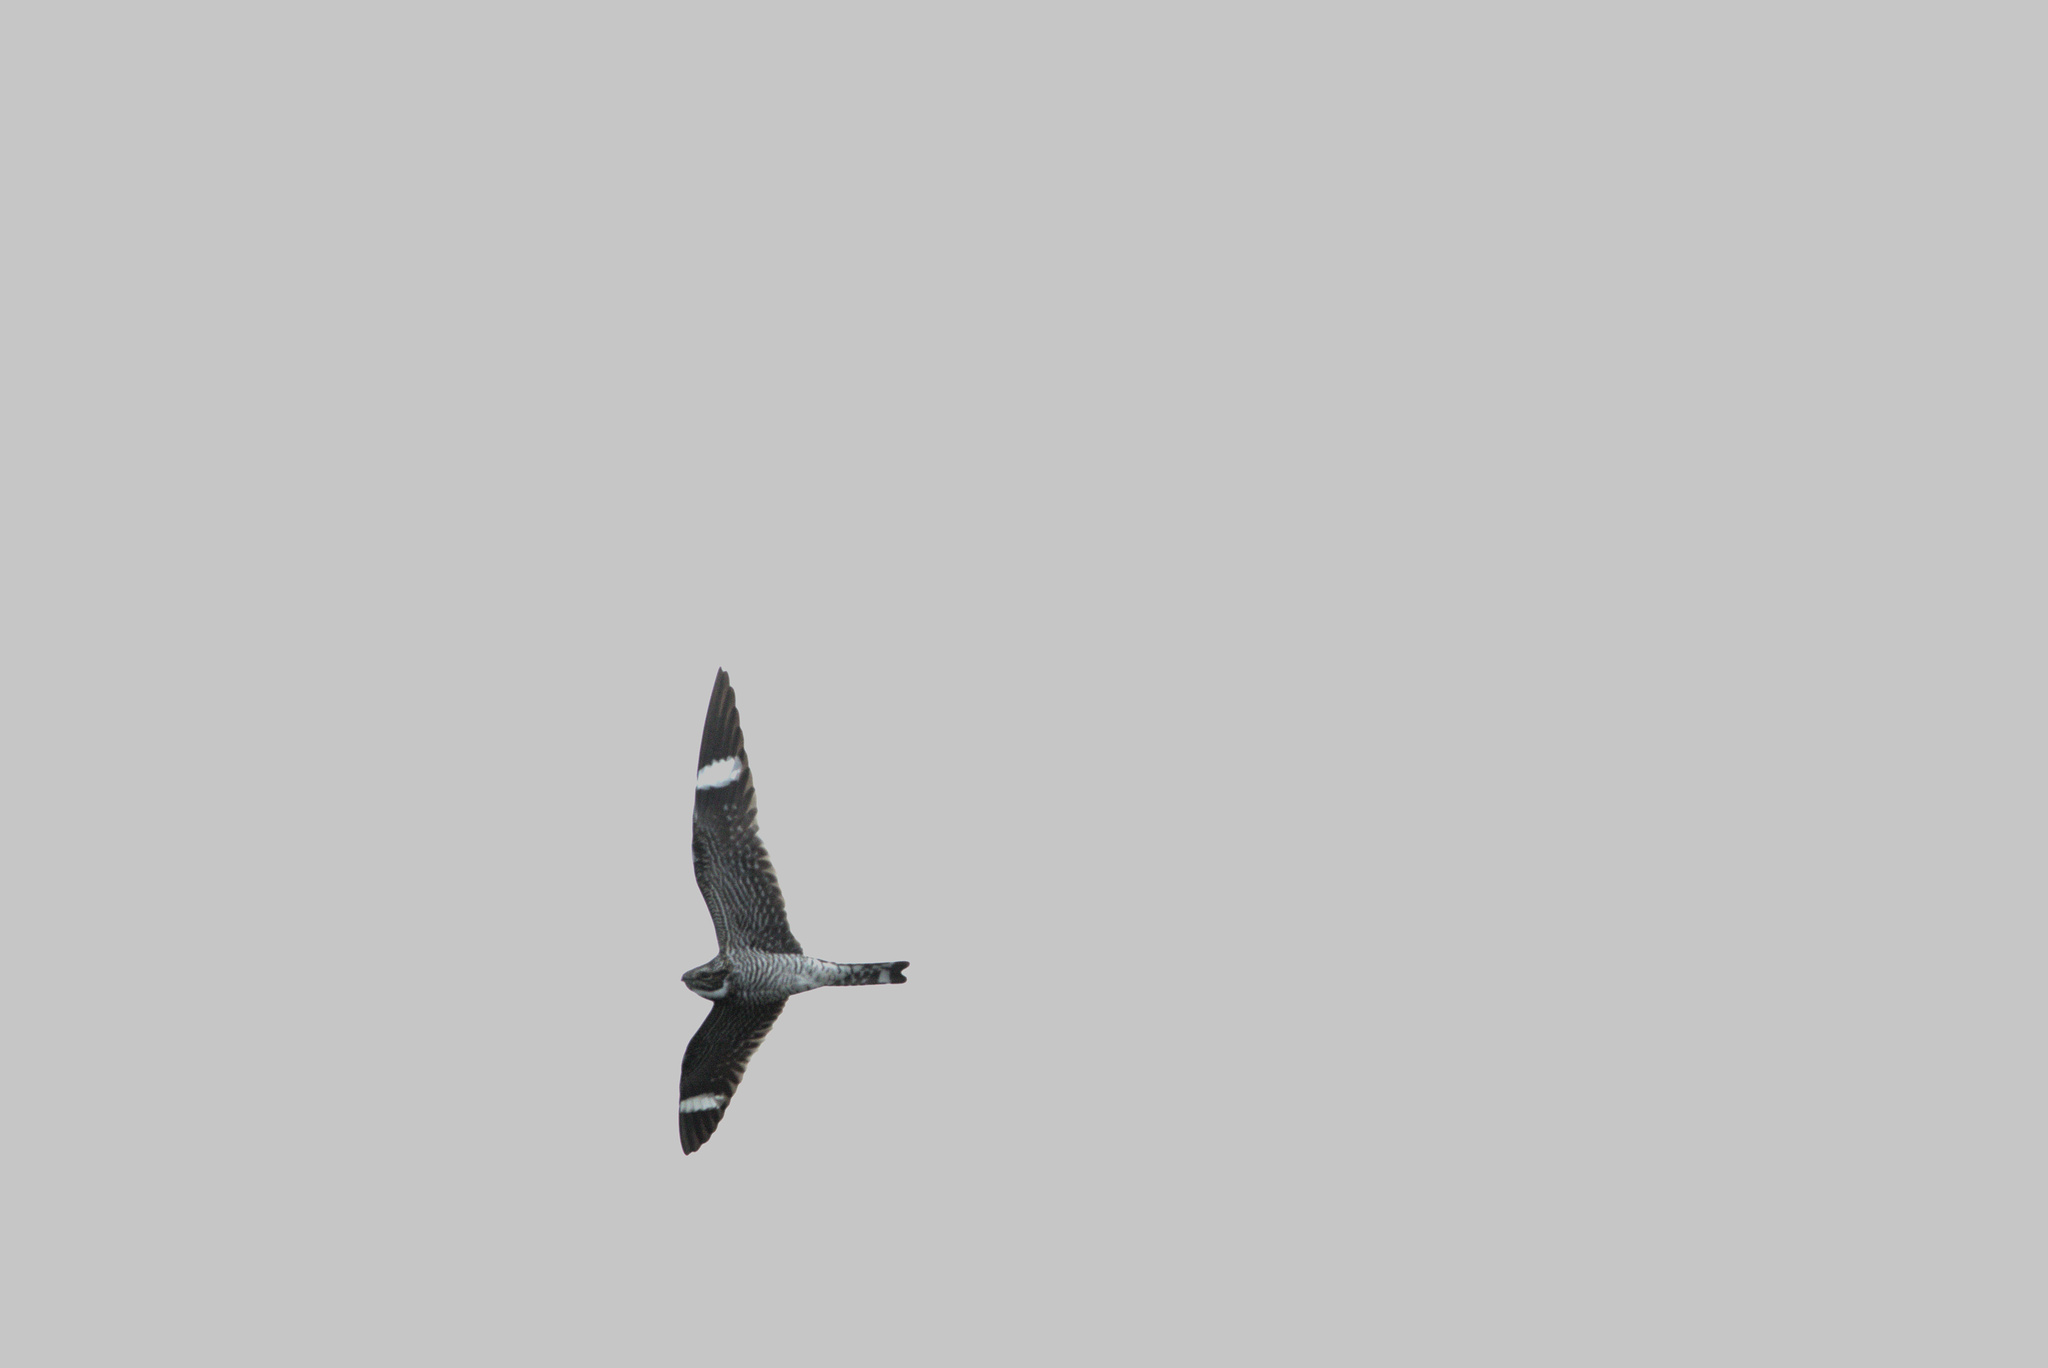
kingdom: Animalia
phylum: Chordata
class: Aves
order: Caprimulgiformes
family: Caprimulgidae
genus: Chordeiles
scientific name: Chordeiles minor
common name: Common nighthawk
